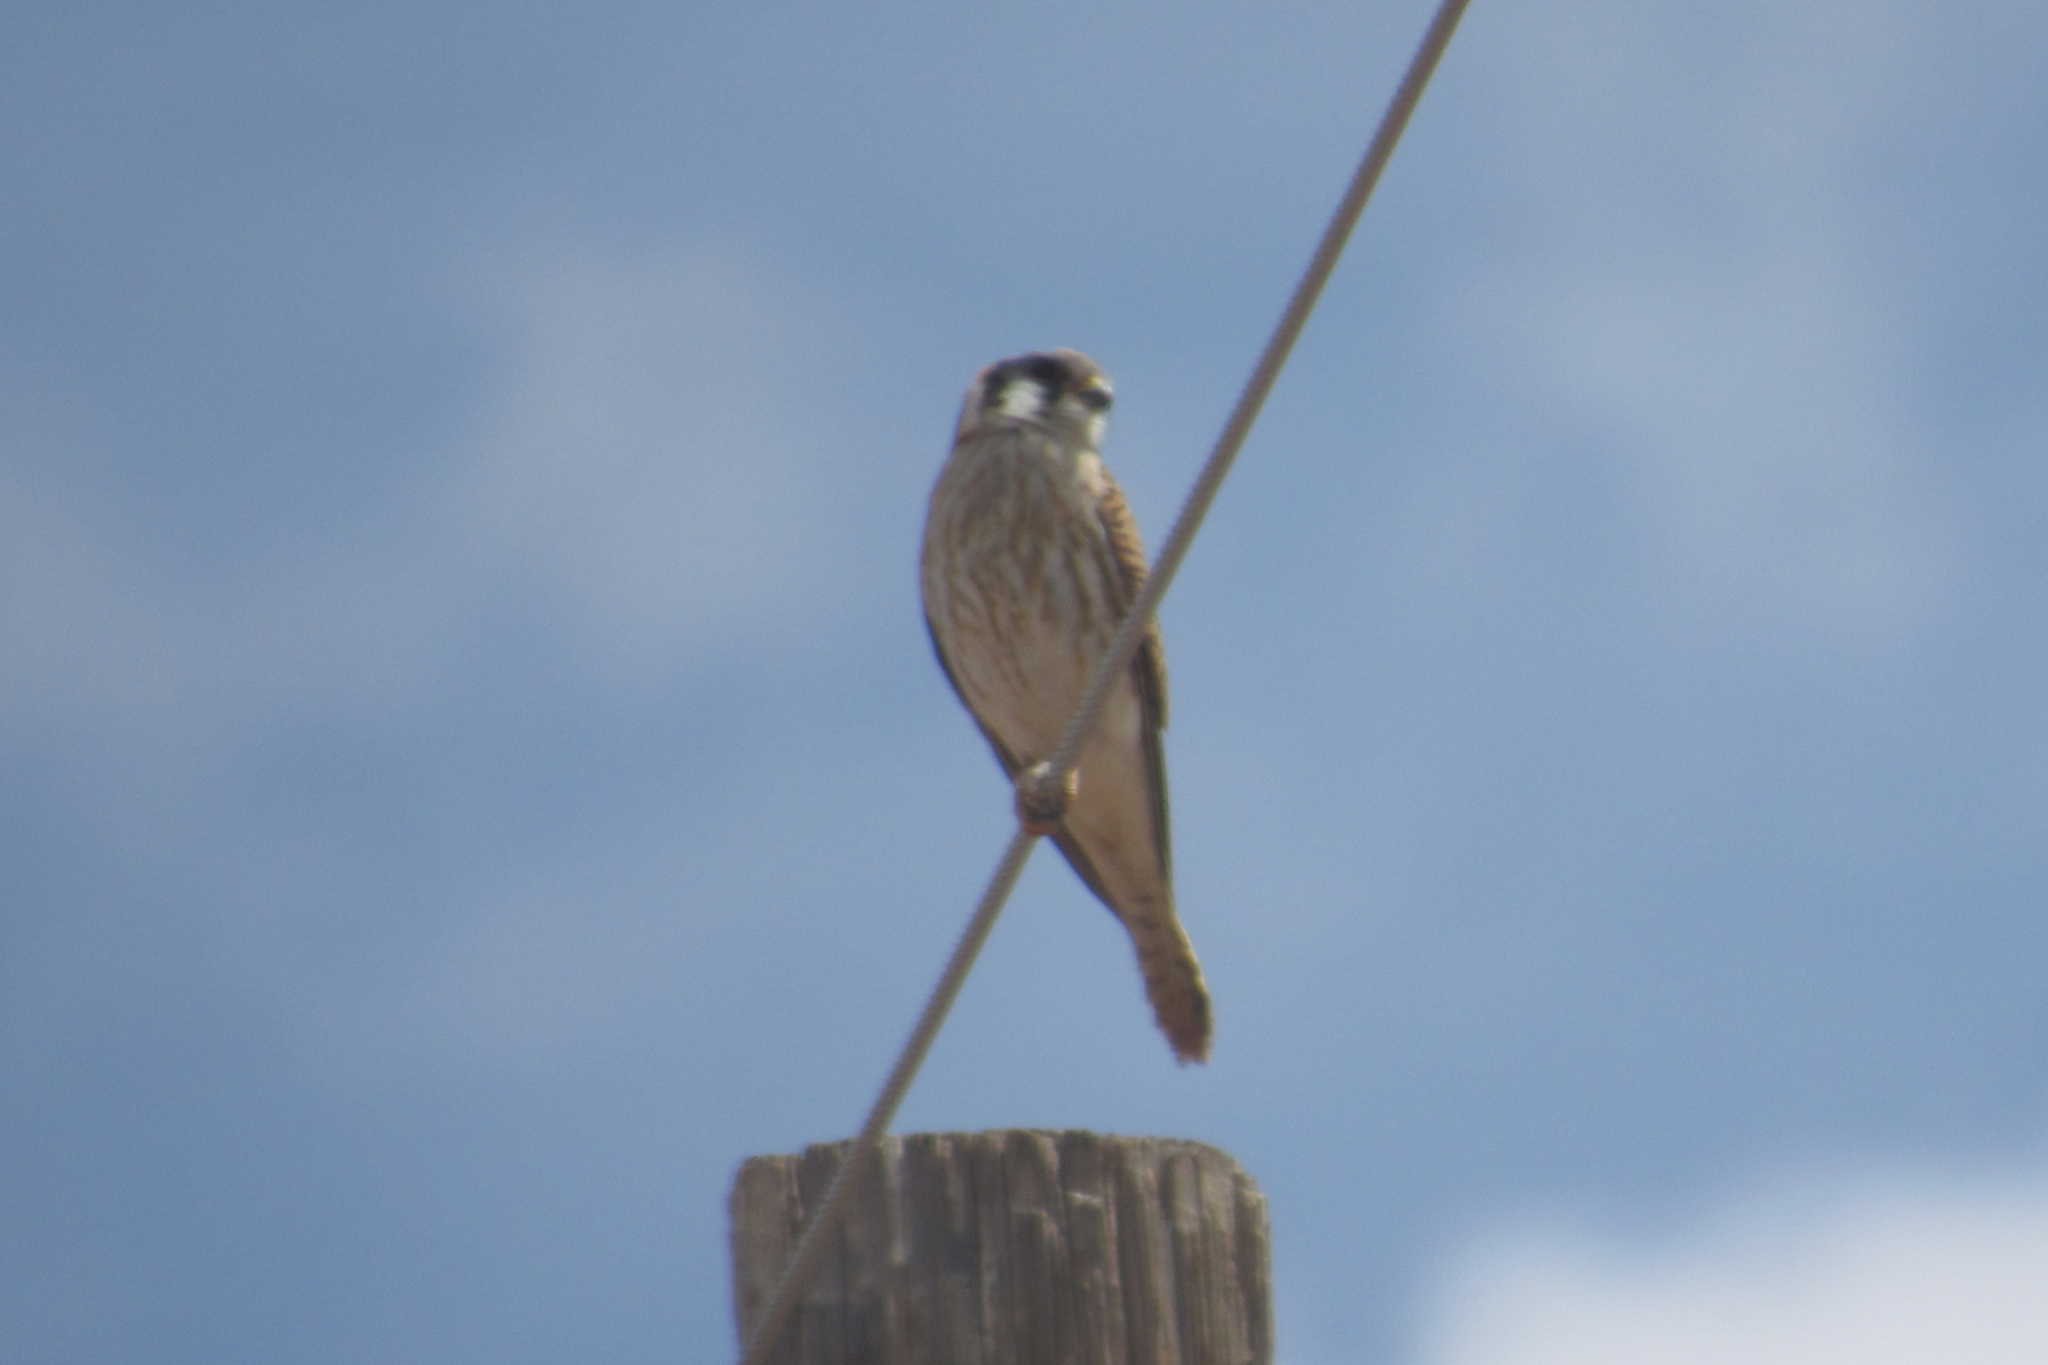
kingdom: Animalia
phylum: Chordata
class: Aves
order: Falconiformes
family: Falconidae
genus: Falco
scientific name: Falco sparverius
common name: American kestrel
